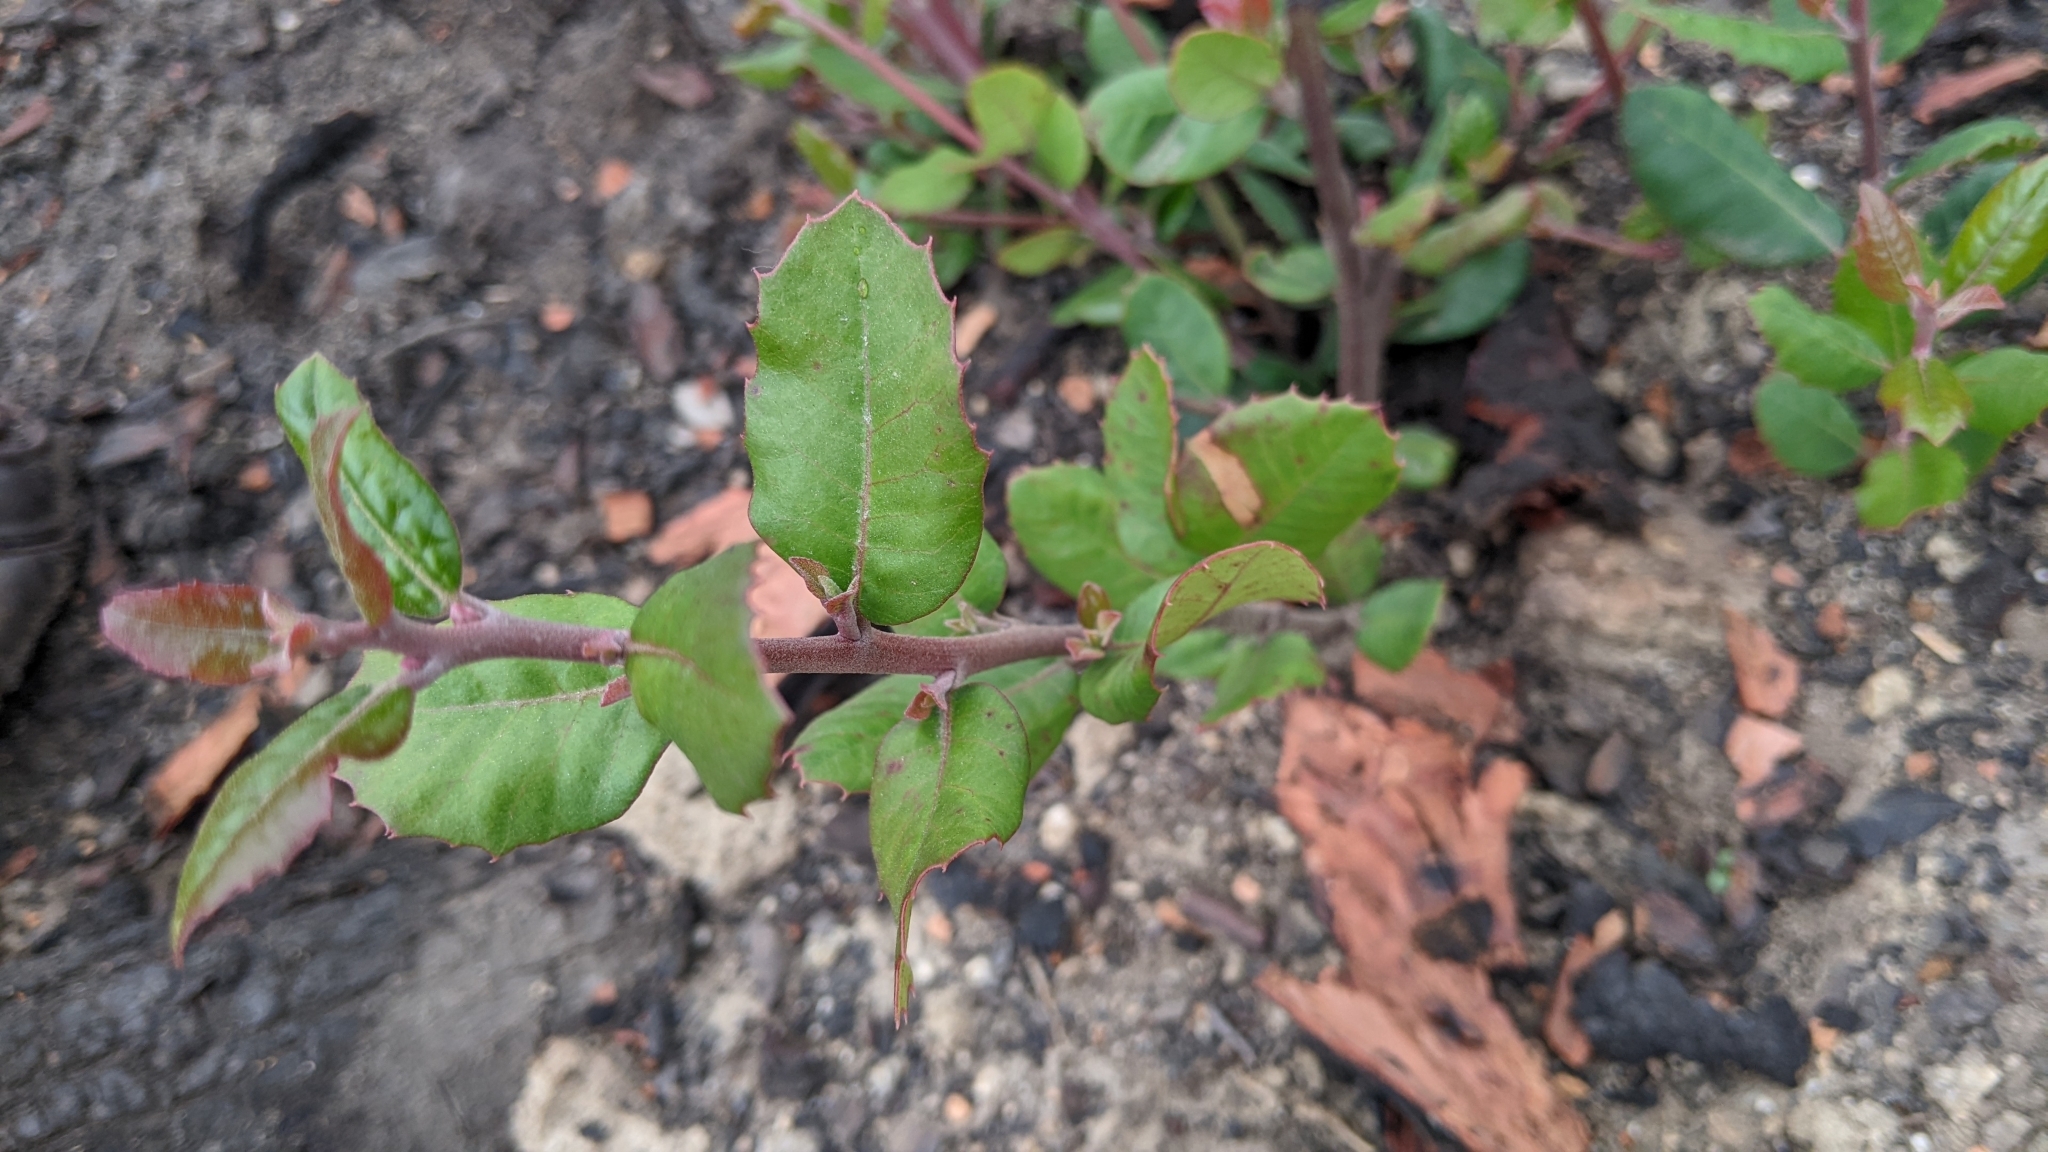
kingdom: Plantae
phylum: Tracheophyta
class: Magnoliopsida
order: Sapindales
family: Anacardiaceae
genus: Rhus
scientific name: Rhus integrifolia
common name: Lemonade sumac
